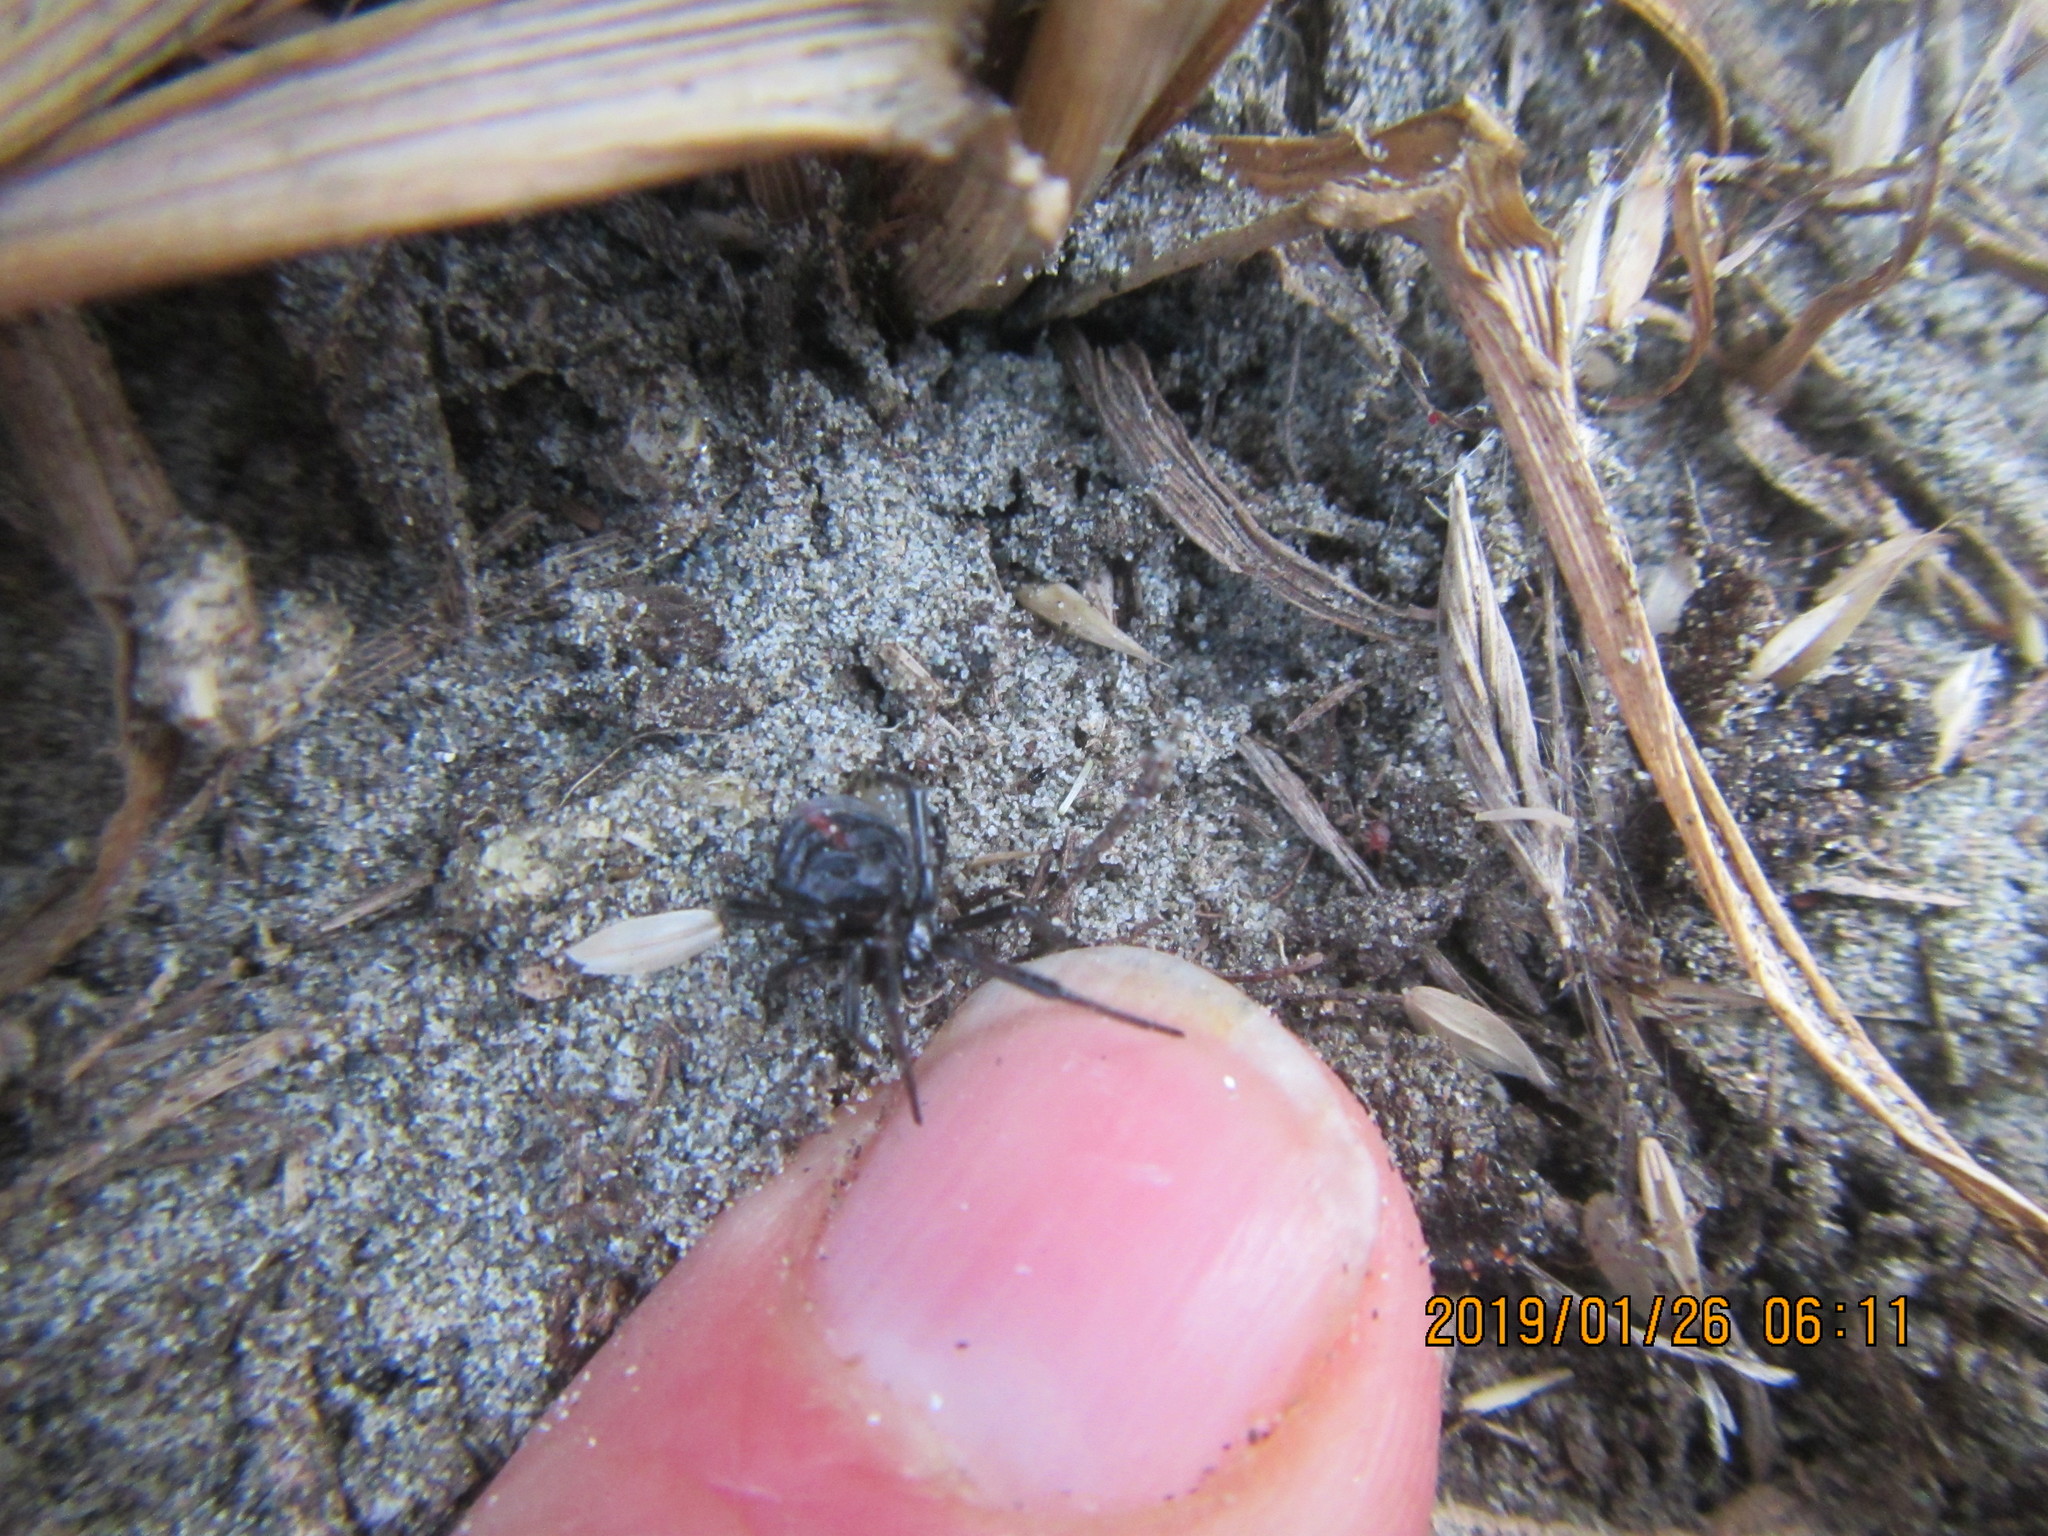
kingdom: Animalia
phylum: Arthropoda
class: Arachnida
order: Araneae
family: Theridiidae
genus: Latrodectus
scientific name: Latrodectus katipo
